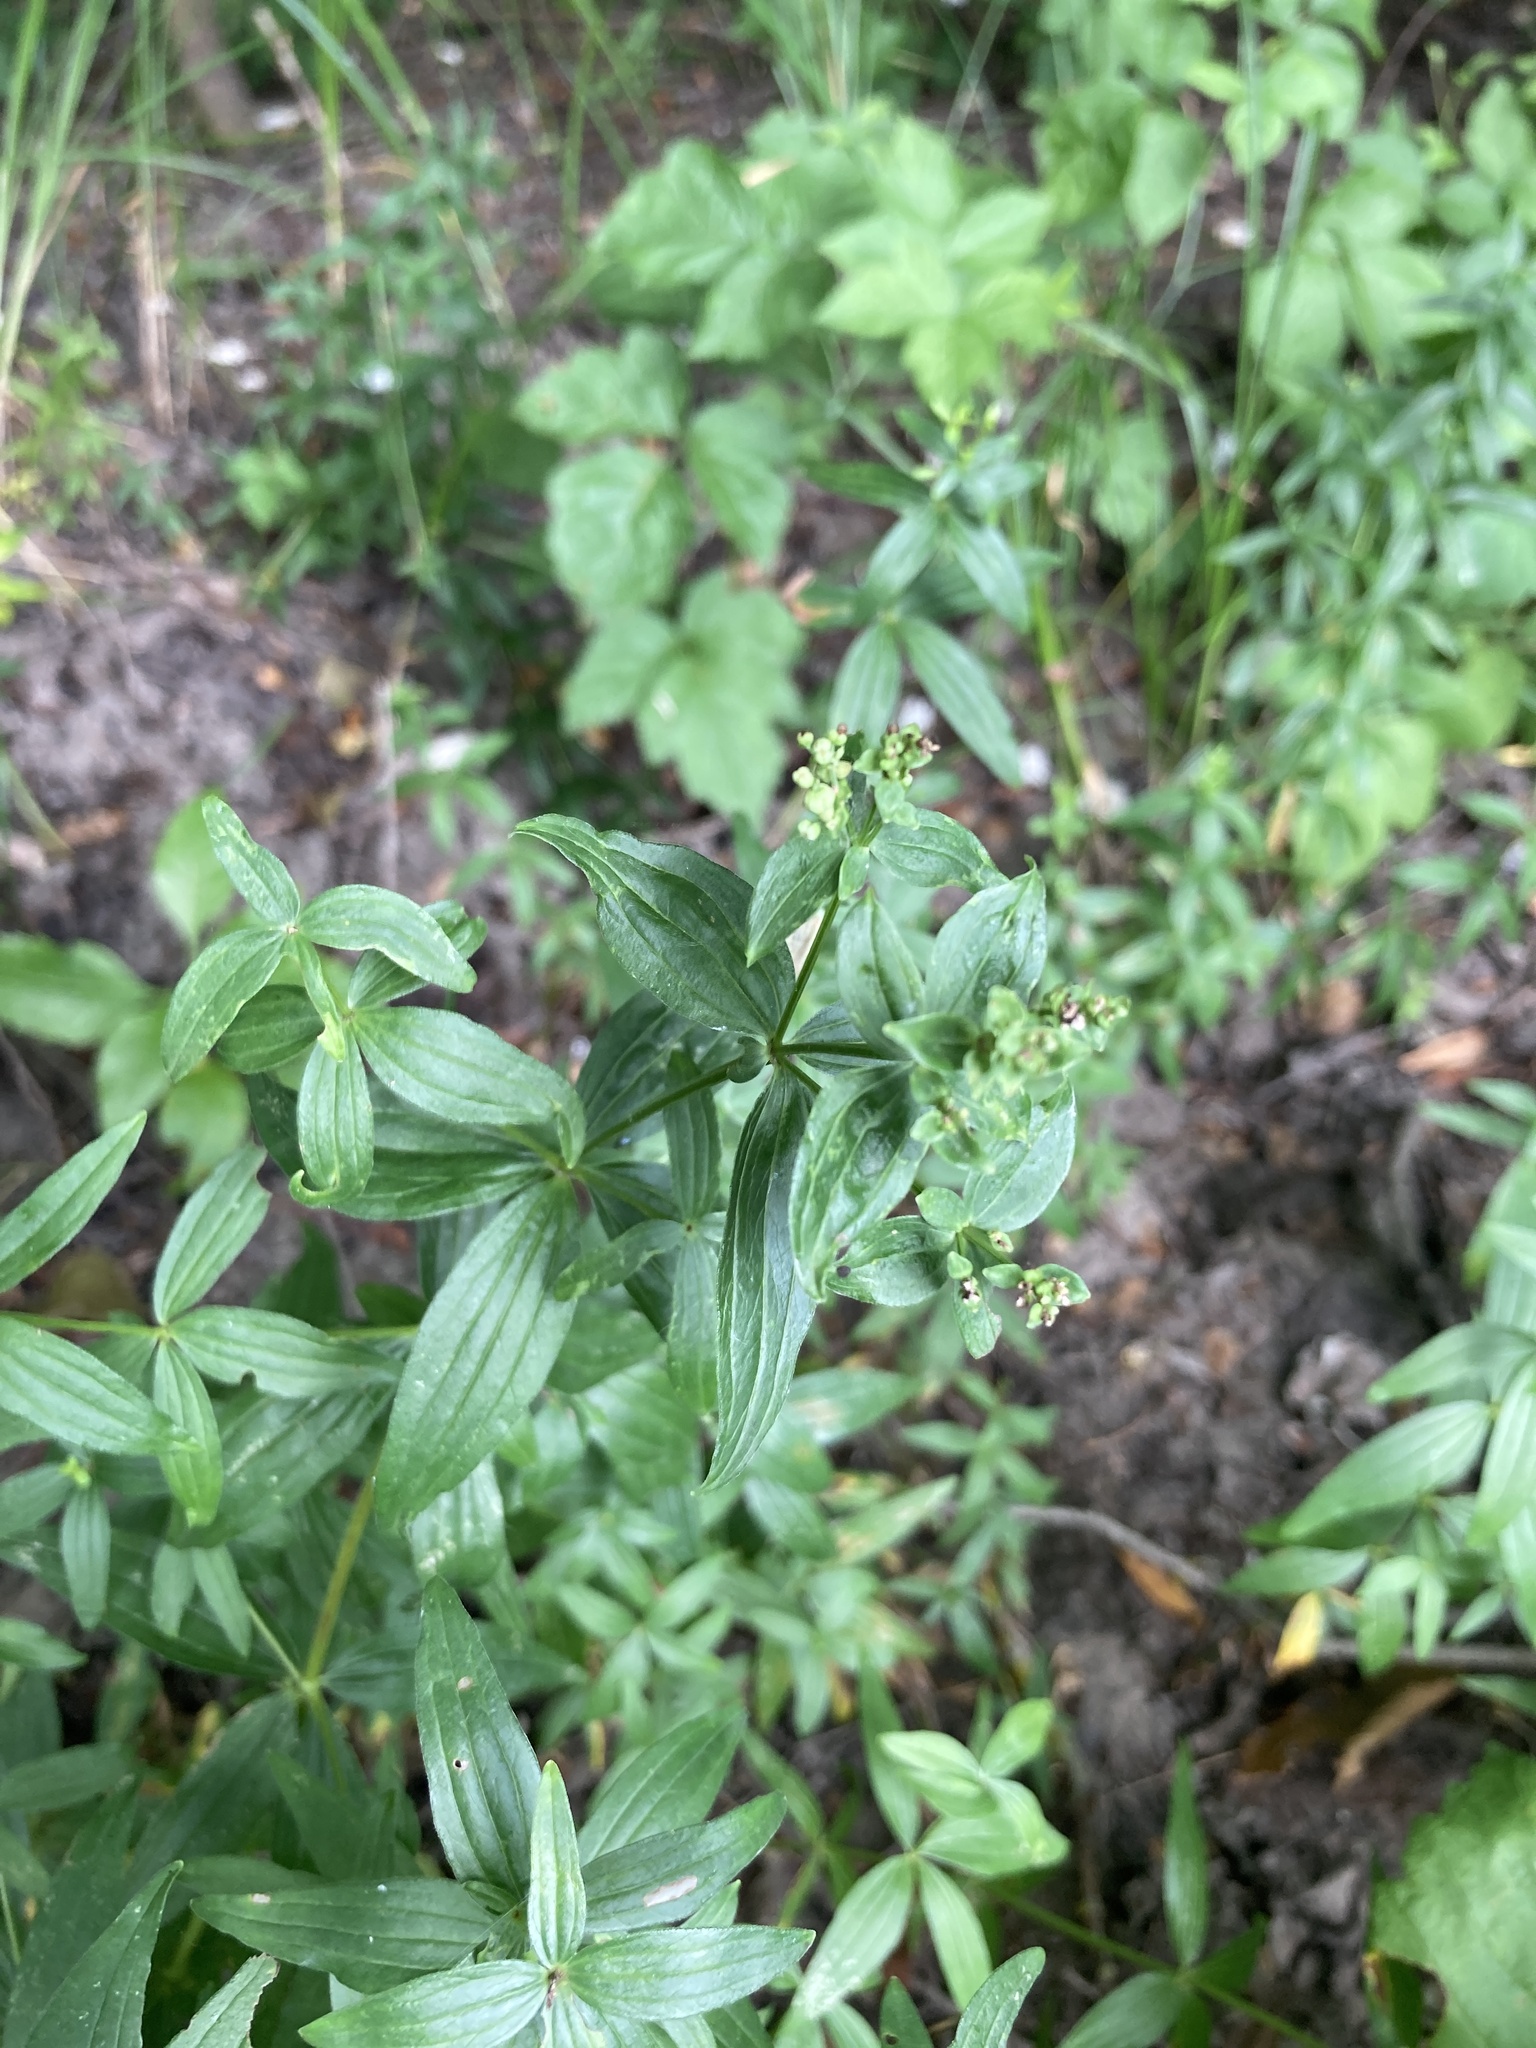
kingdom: Plantae
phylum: Tracheophyta
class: Magnoliopsida
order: Gentianales
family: Rubiaceae
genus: Galium
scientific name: Galium rubioides
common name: European bedstraw
